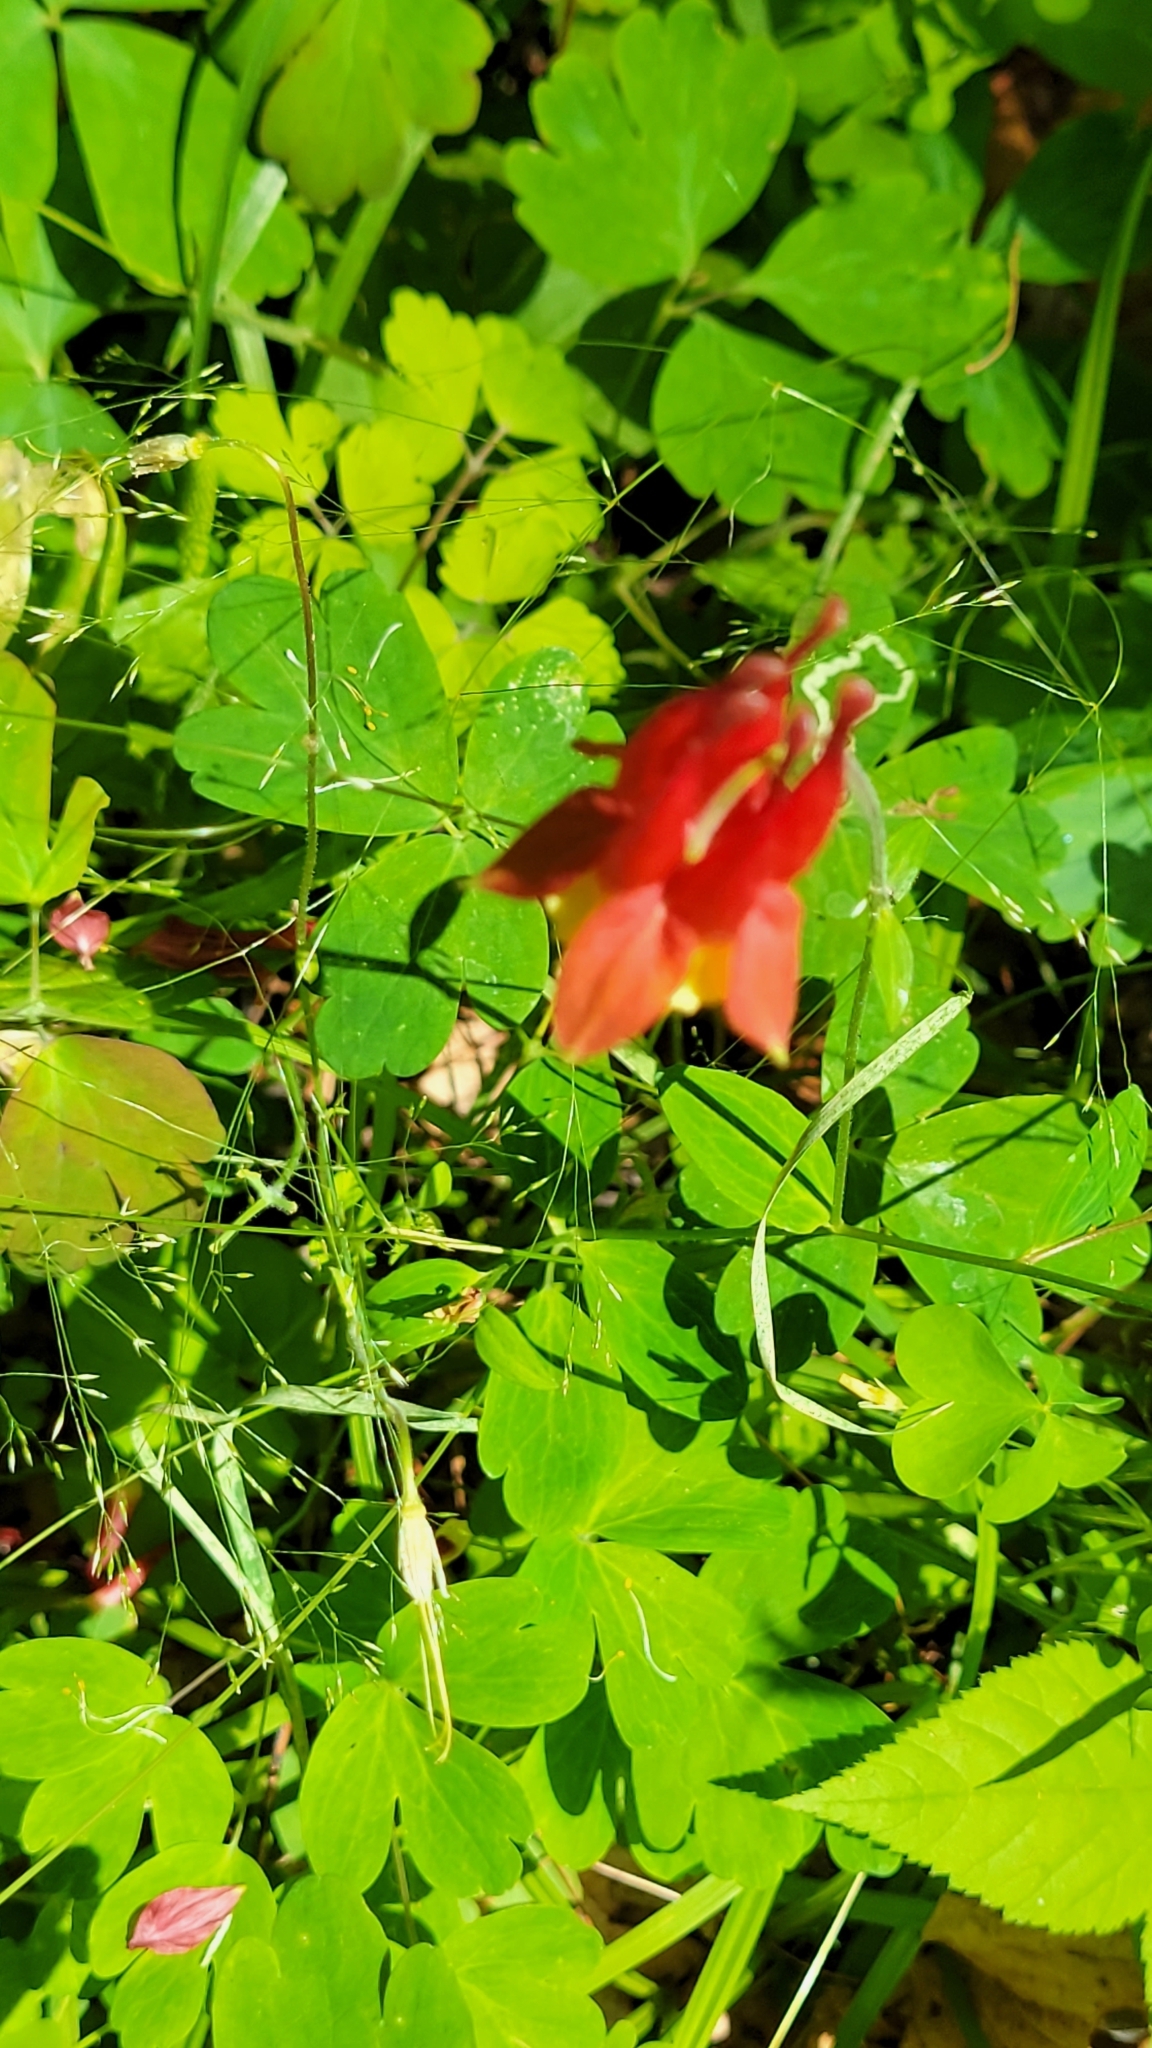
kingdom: Plantae
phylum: Tracheophyta
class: Magnoliopsida
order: Ranunculales
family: Ranunculaceae
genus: Aquilegia
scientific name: Aquilegia canadensis
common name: American columbine
